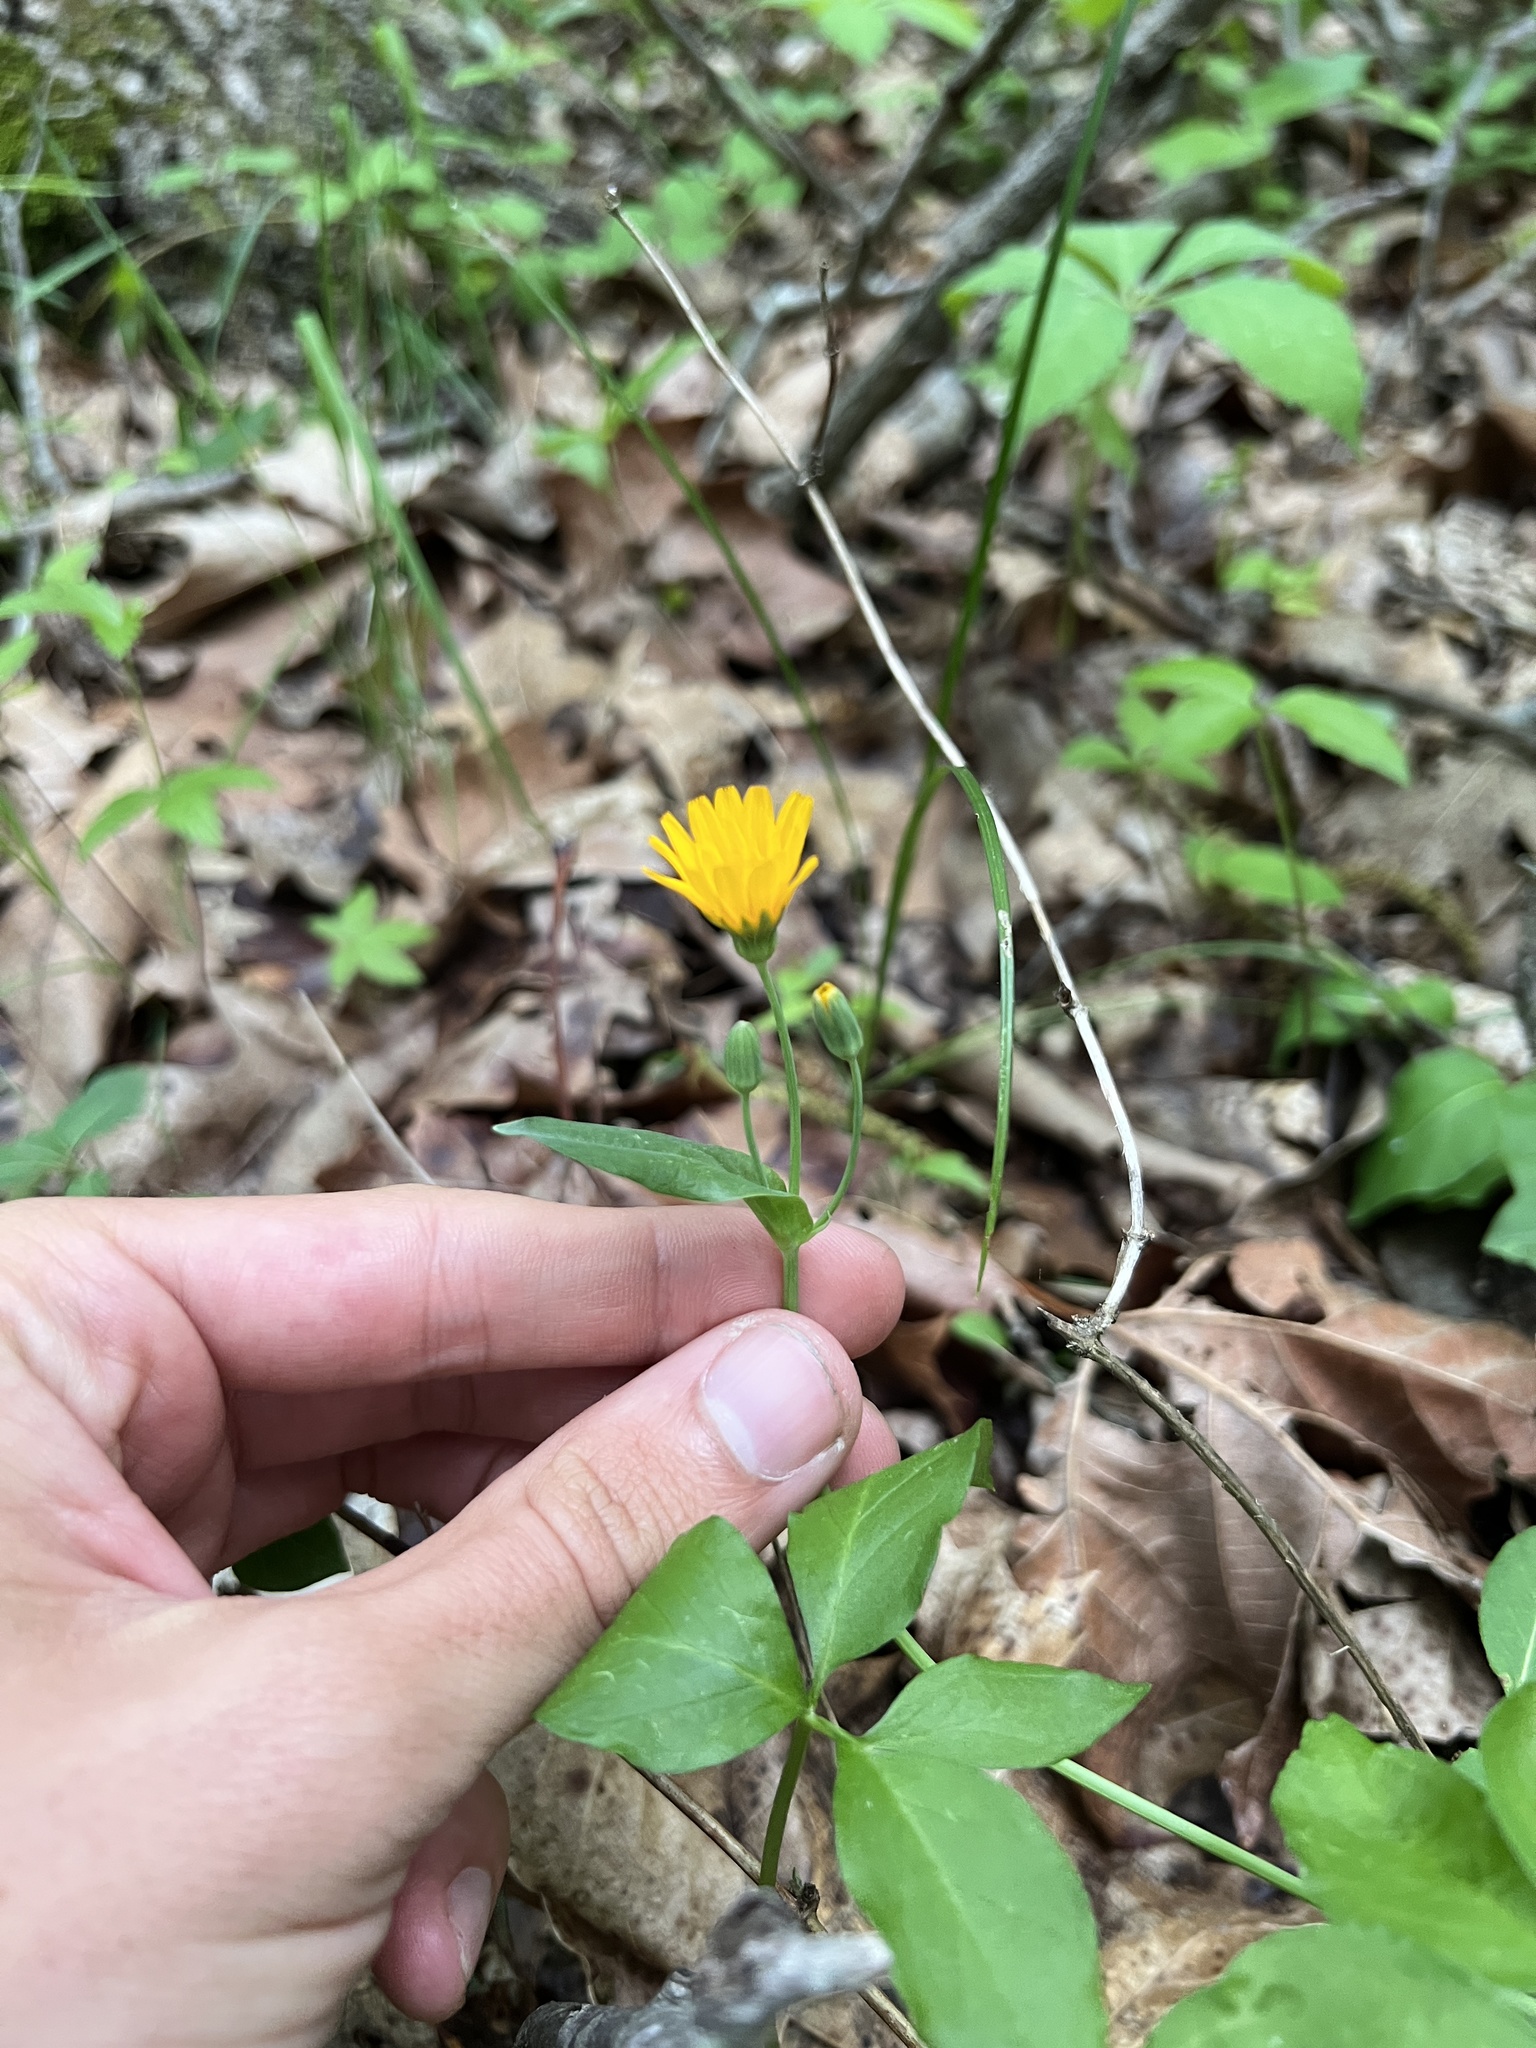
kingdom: Plantae
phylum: Tracheophyta
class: Magnoliopsida
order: Asterales
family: Asteraceae
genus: Krigia
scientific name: Krigia biflora
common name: Orange dwarf-dandelion
